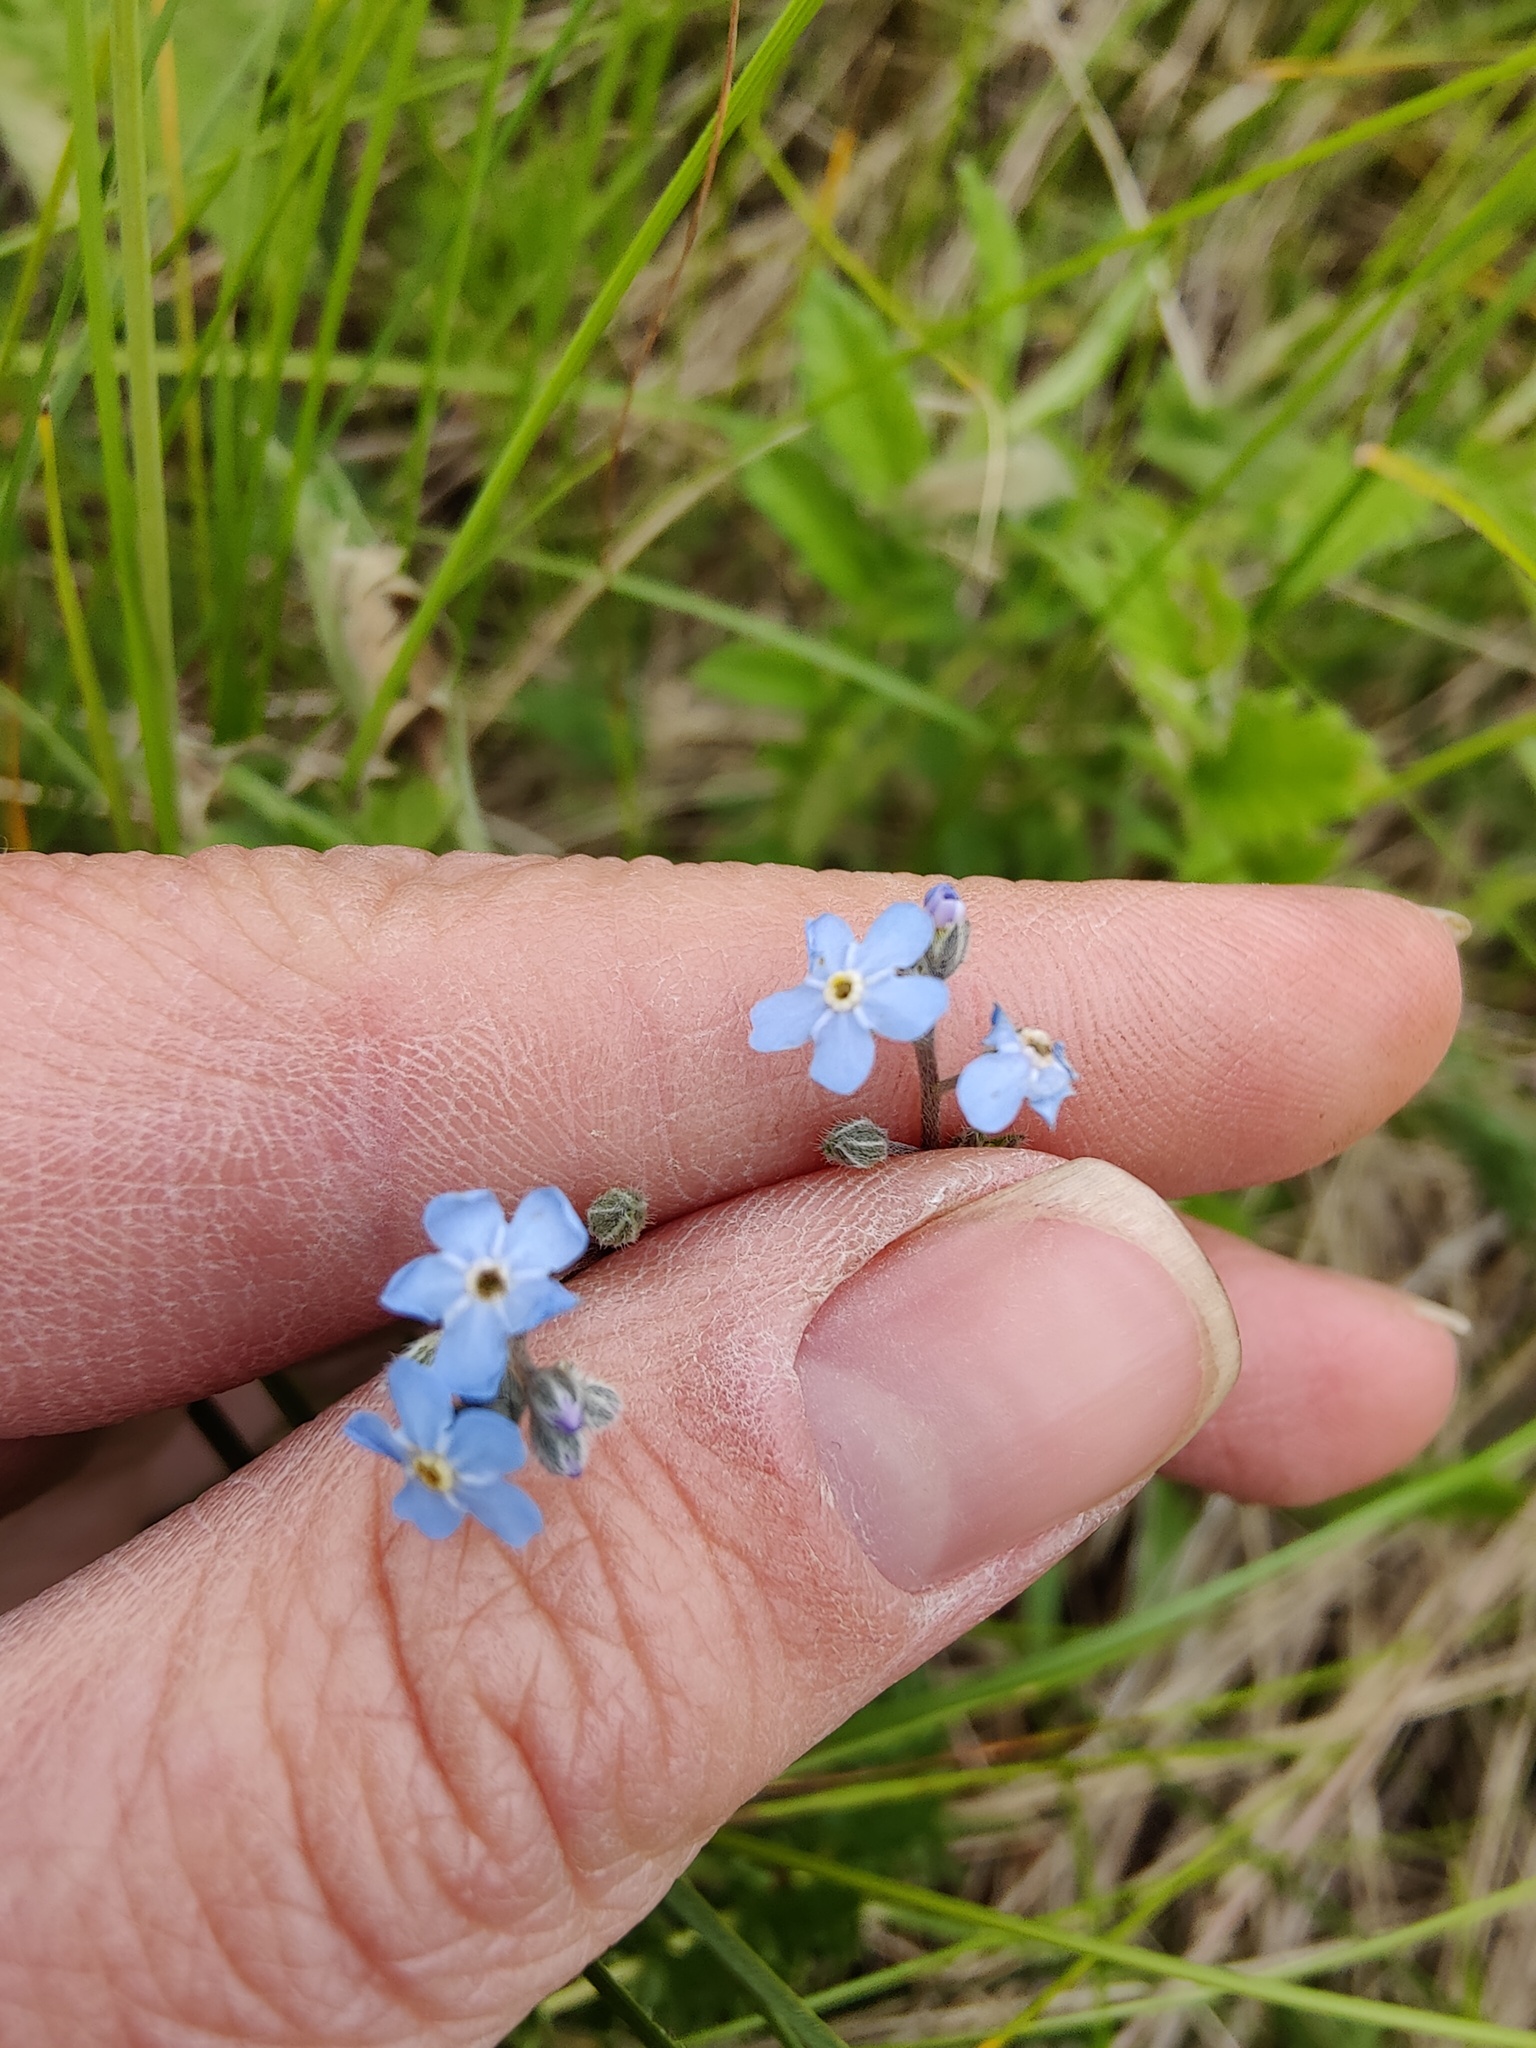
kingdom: Plantae
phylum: Tracheophyta
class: Magnoliopsida
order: Boraginales
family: Boraginaceae
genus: Myosotis
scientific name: Myosotis alpestris
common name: Alpine forget-me-not
